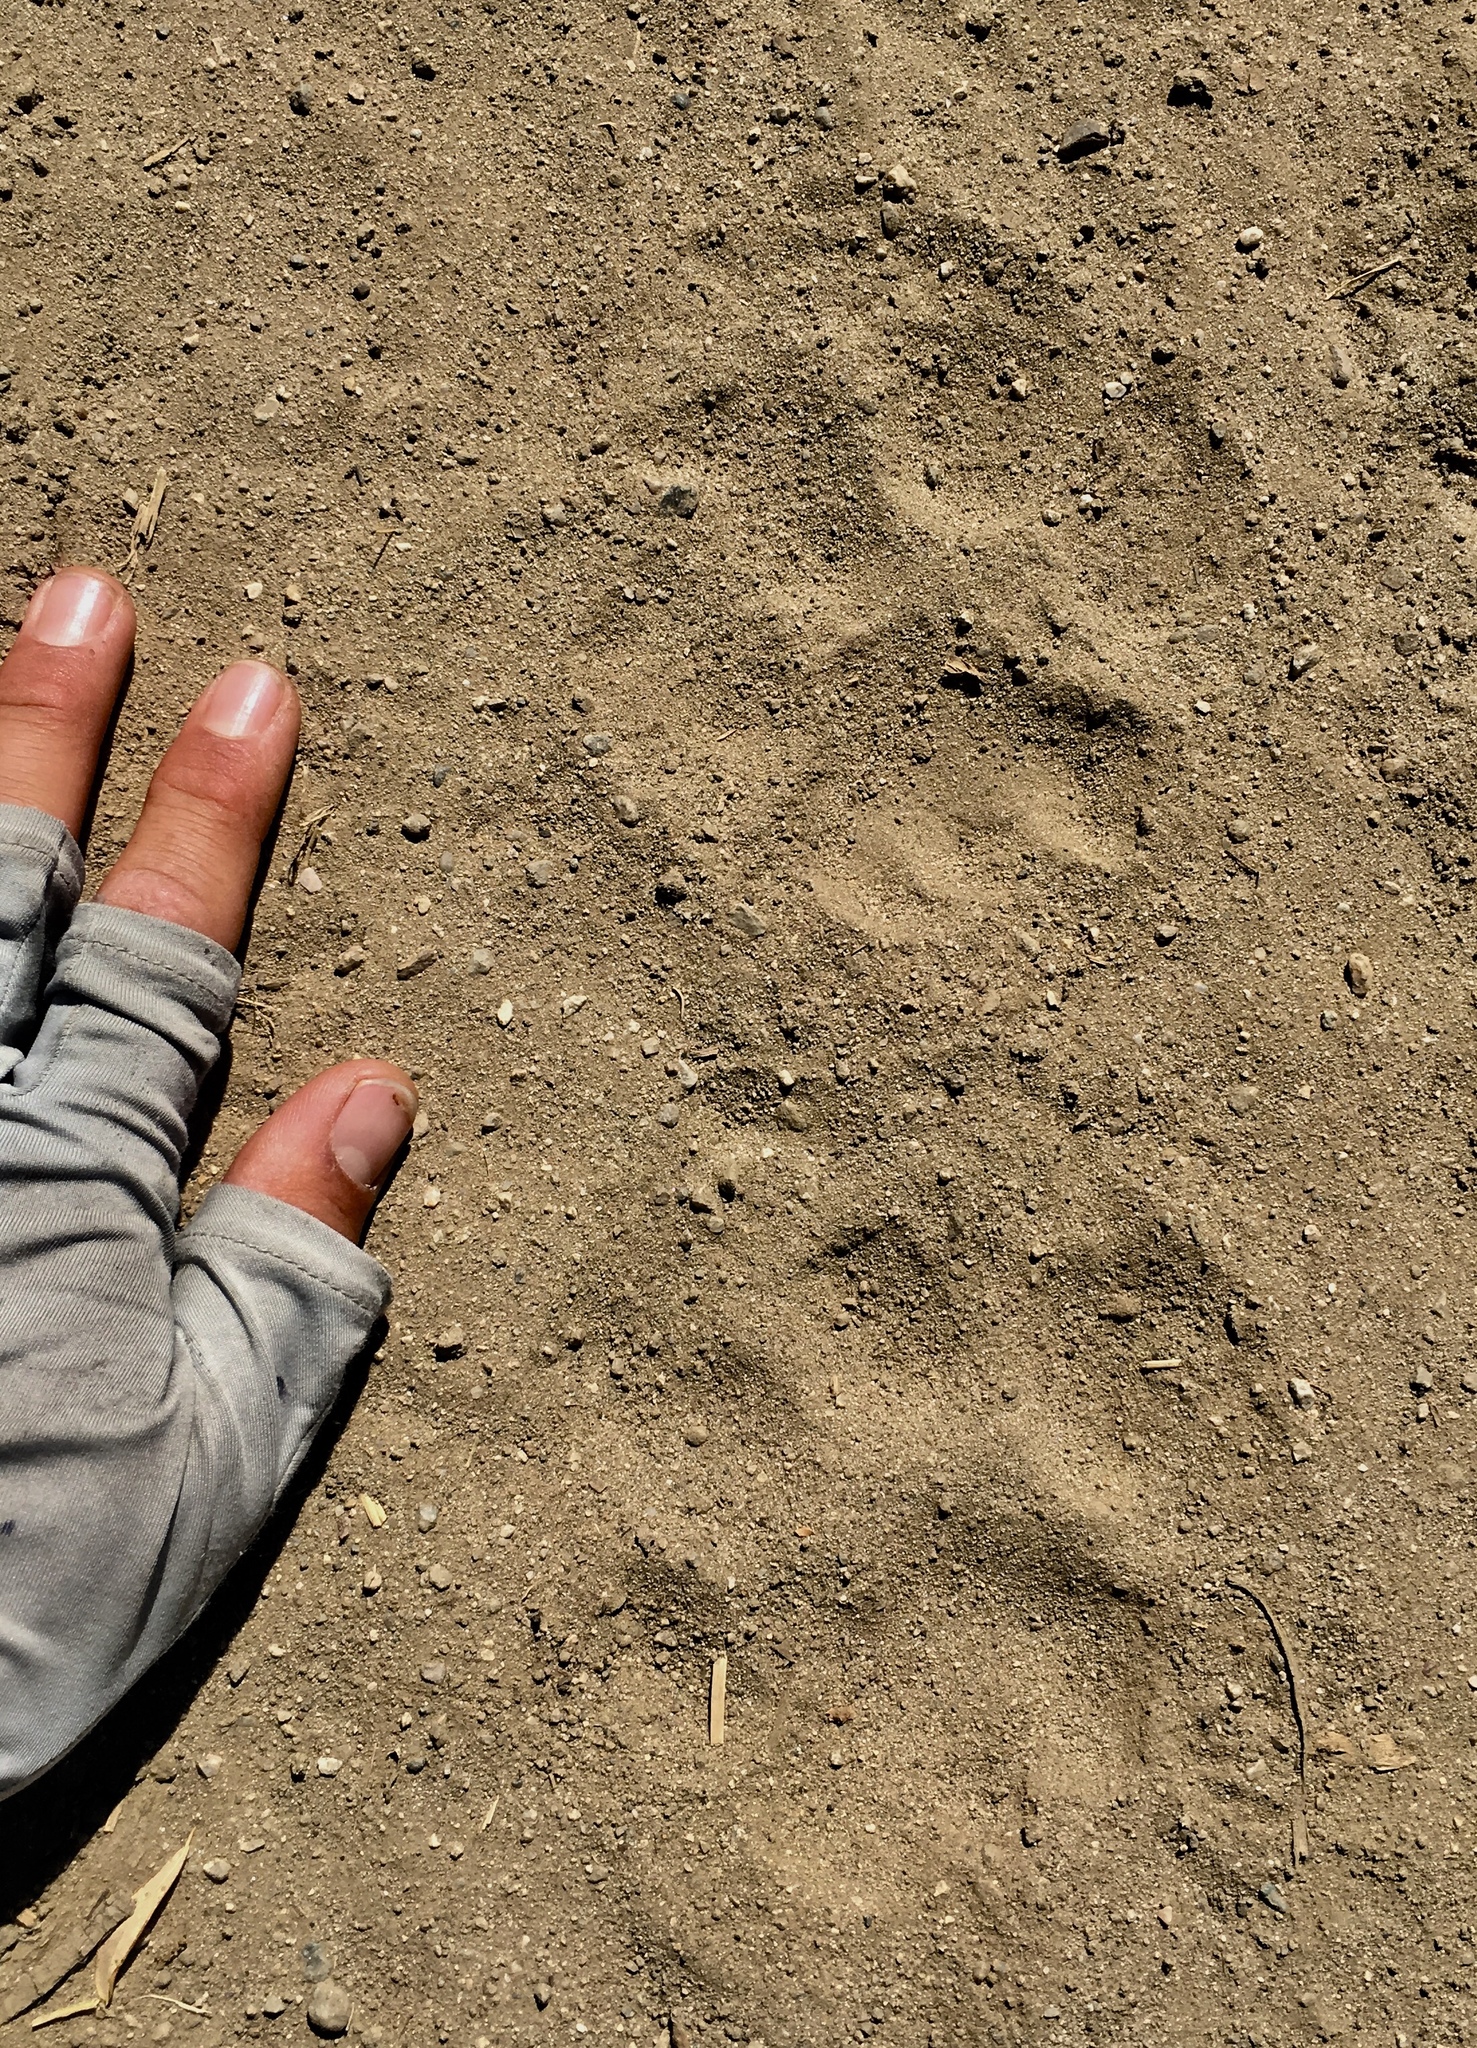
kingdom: Animalia
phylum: Chordata
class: Mammalia
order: Carnivora
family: Felidae
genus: Puma
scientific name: Puma concolor
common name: Puma
